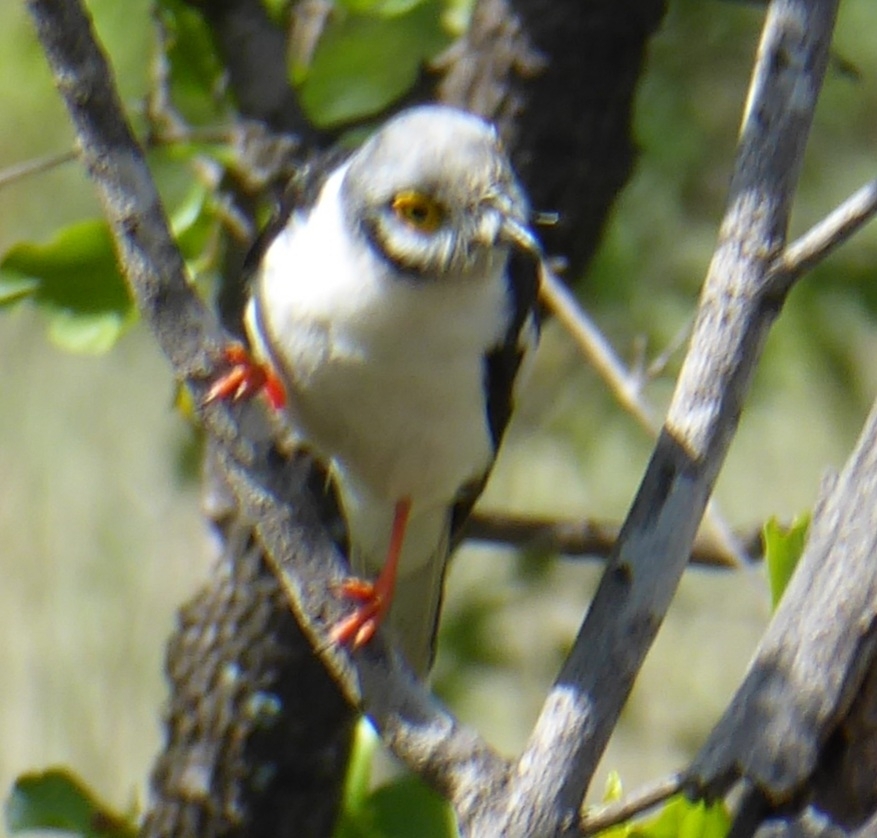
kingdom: Animalia
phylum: Chordata
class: Aves
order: Passeriformes
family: Prionopidae
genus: Prionops
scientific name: Prionops plumatus
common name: White-crested helmetshrike
